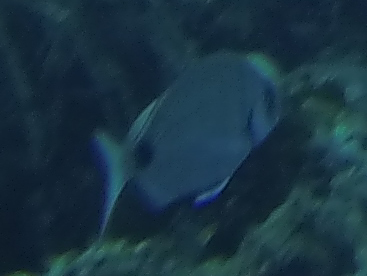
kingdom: Animalia
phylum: Chordata
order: Perciformes
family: Sparidae
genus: Diplodus
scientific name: Diplodus sargus
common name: White seabream
